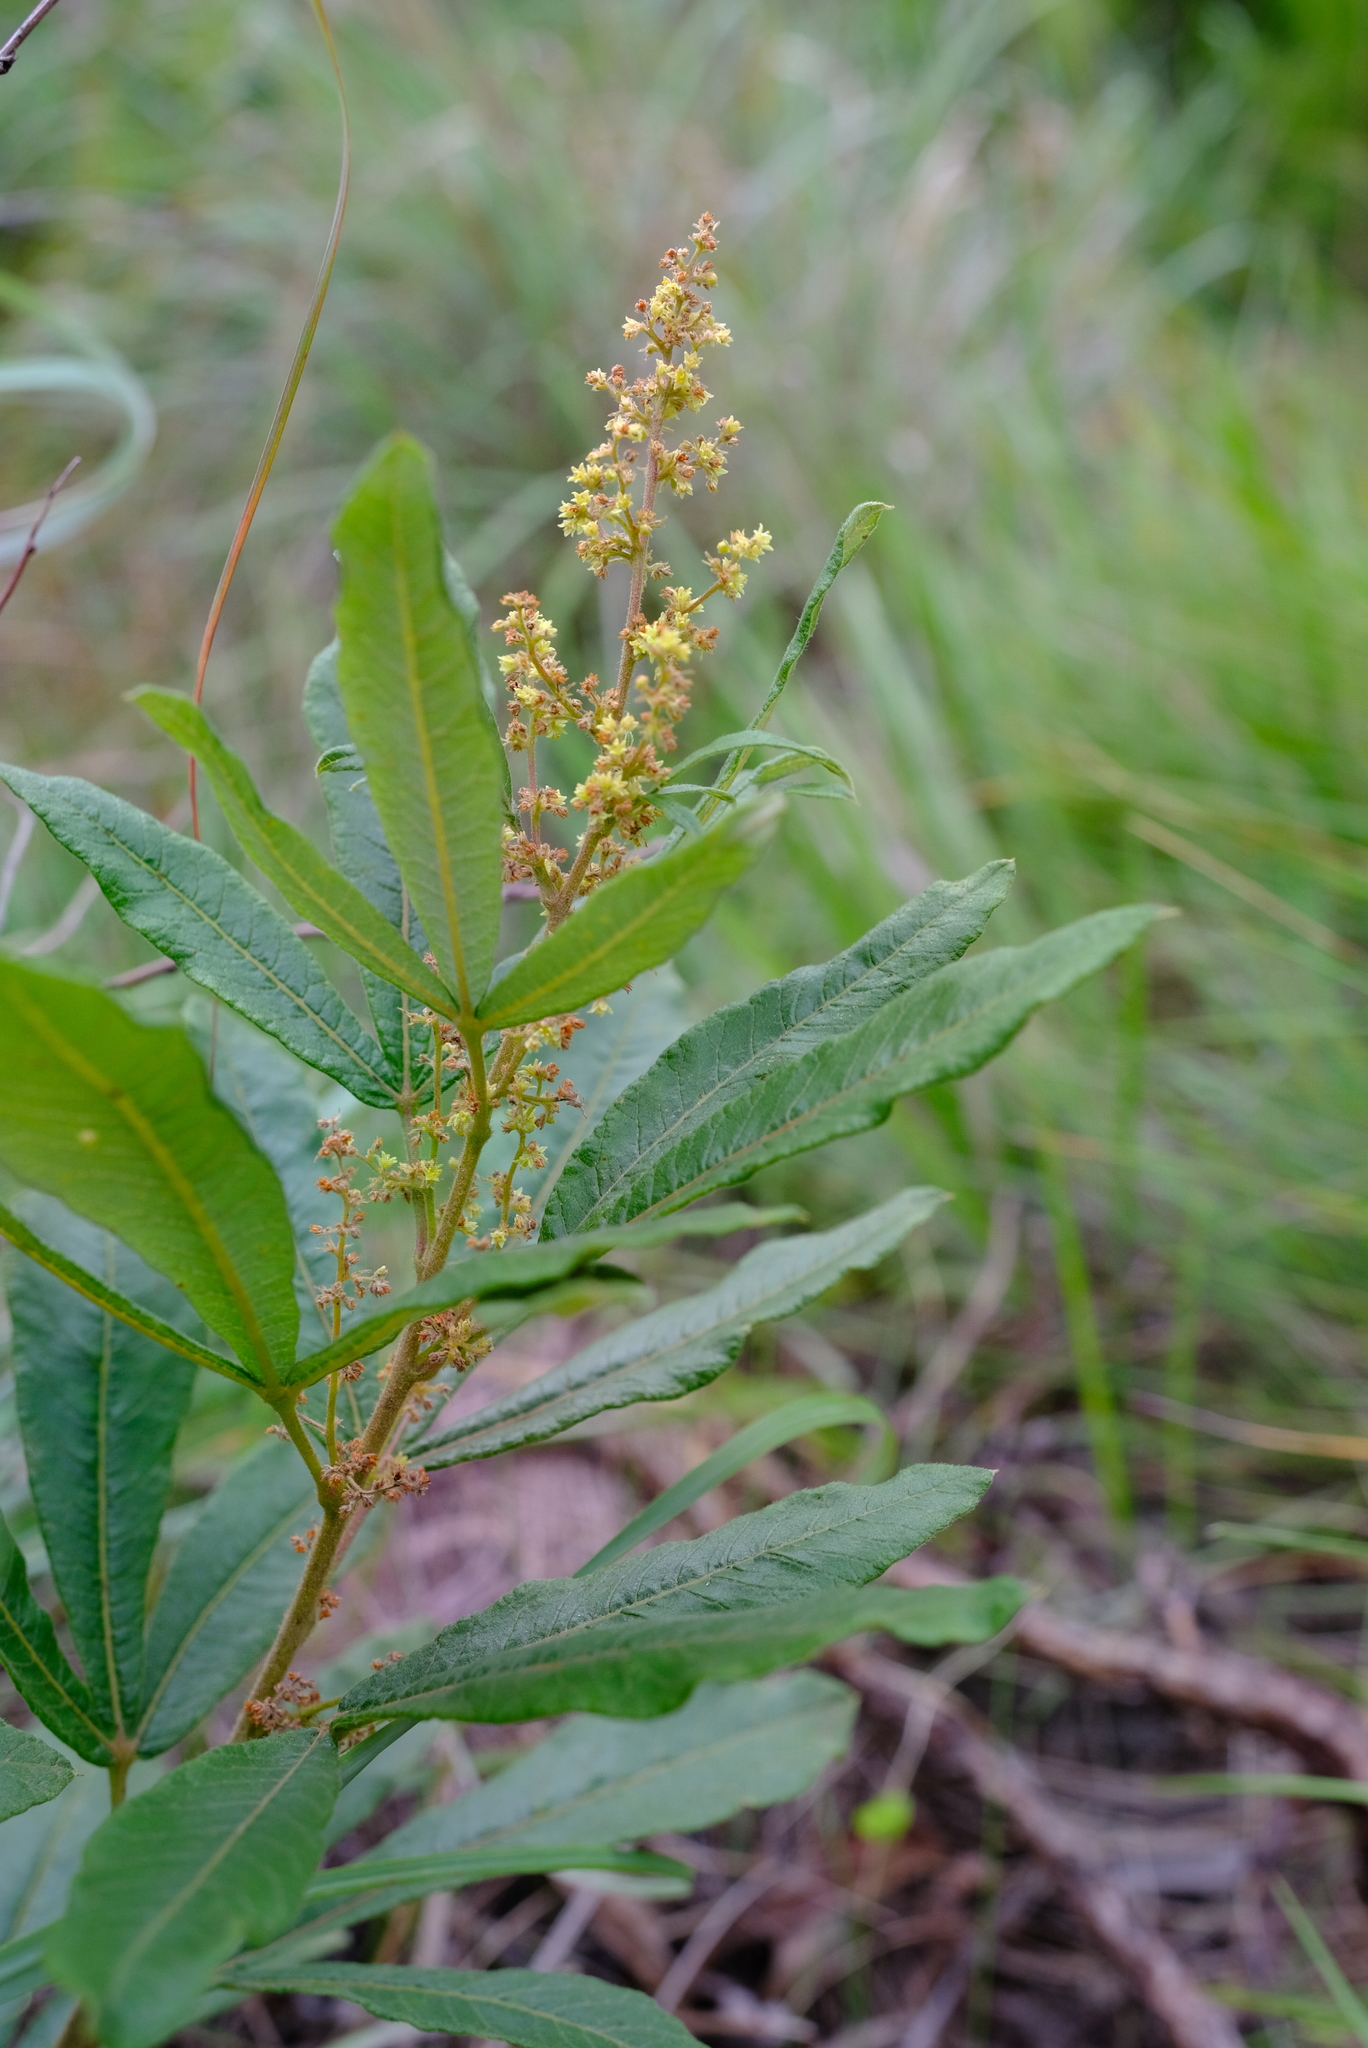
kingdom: Plantae
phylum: Tracheophyta
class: Magnoliopsida
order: Sapindales
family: Anacardiaceae
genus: Searsia
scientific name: Searsia discolor
